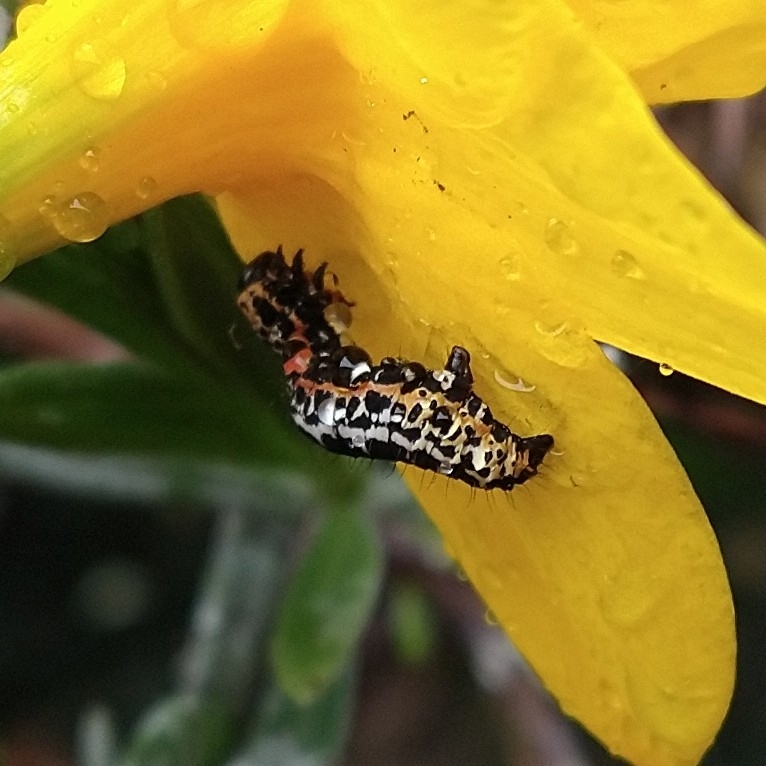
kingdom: Animalia
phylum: Arthropoda
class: Insecta
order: Lepidoptera
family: Geometridae
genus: Abraxas
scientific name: Abraxas grossulariata
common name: Magpie
